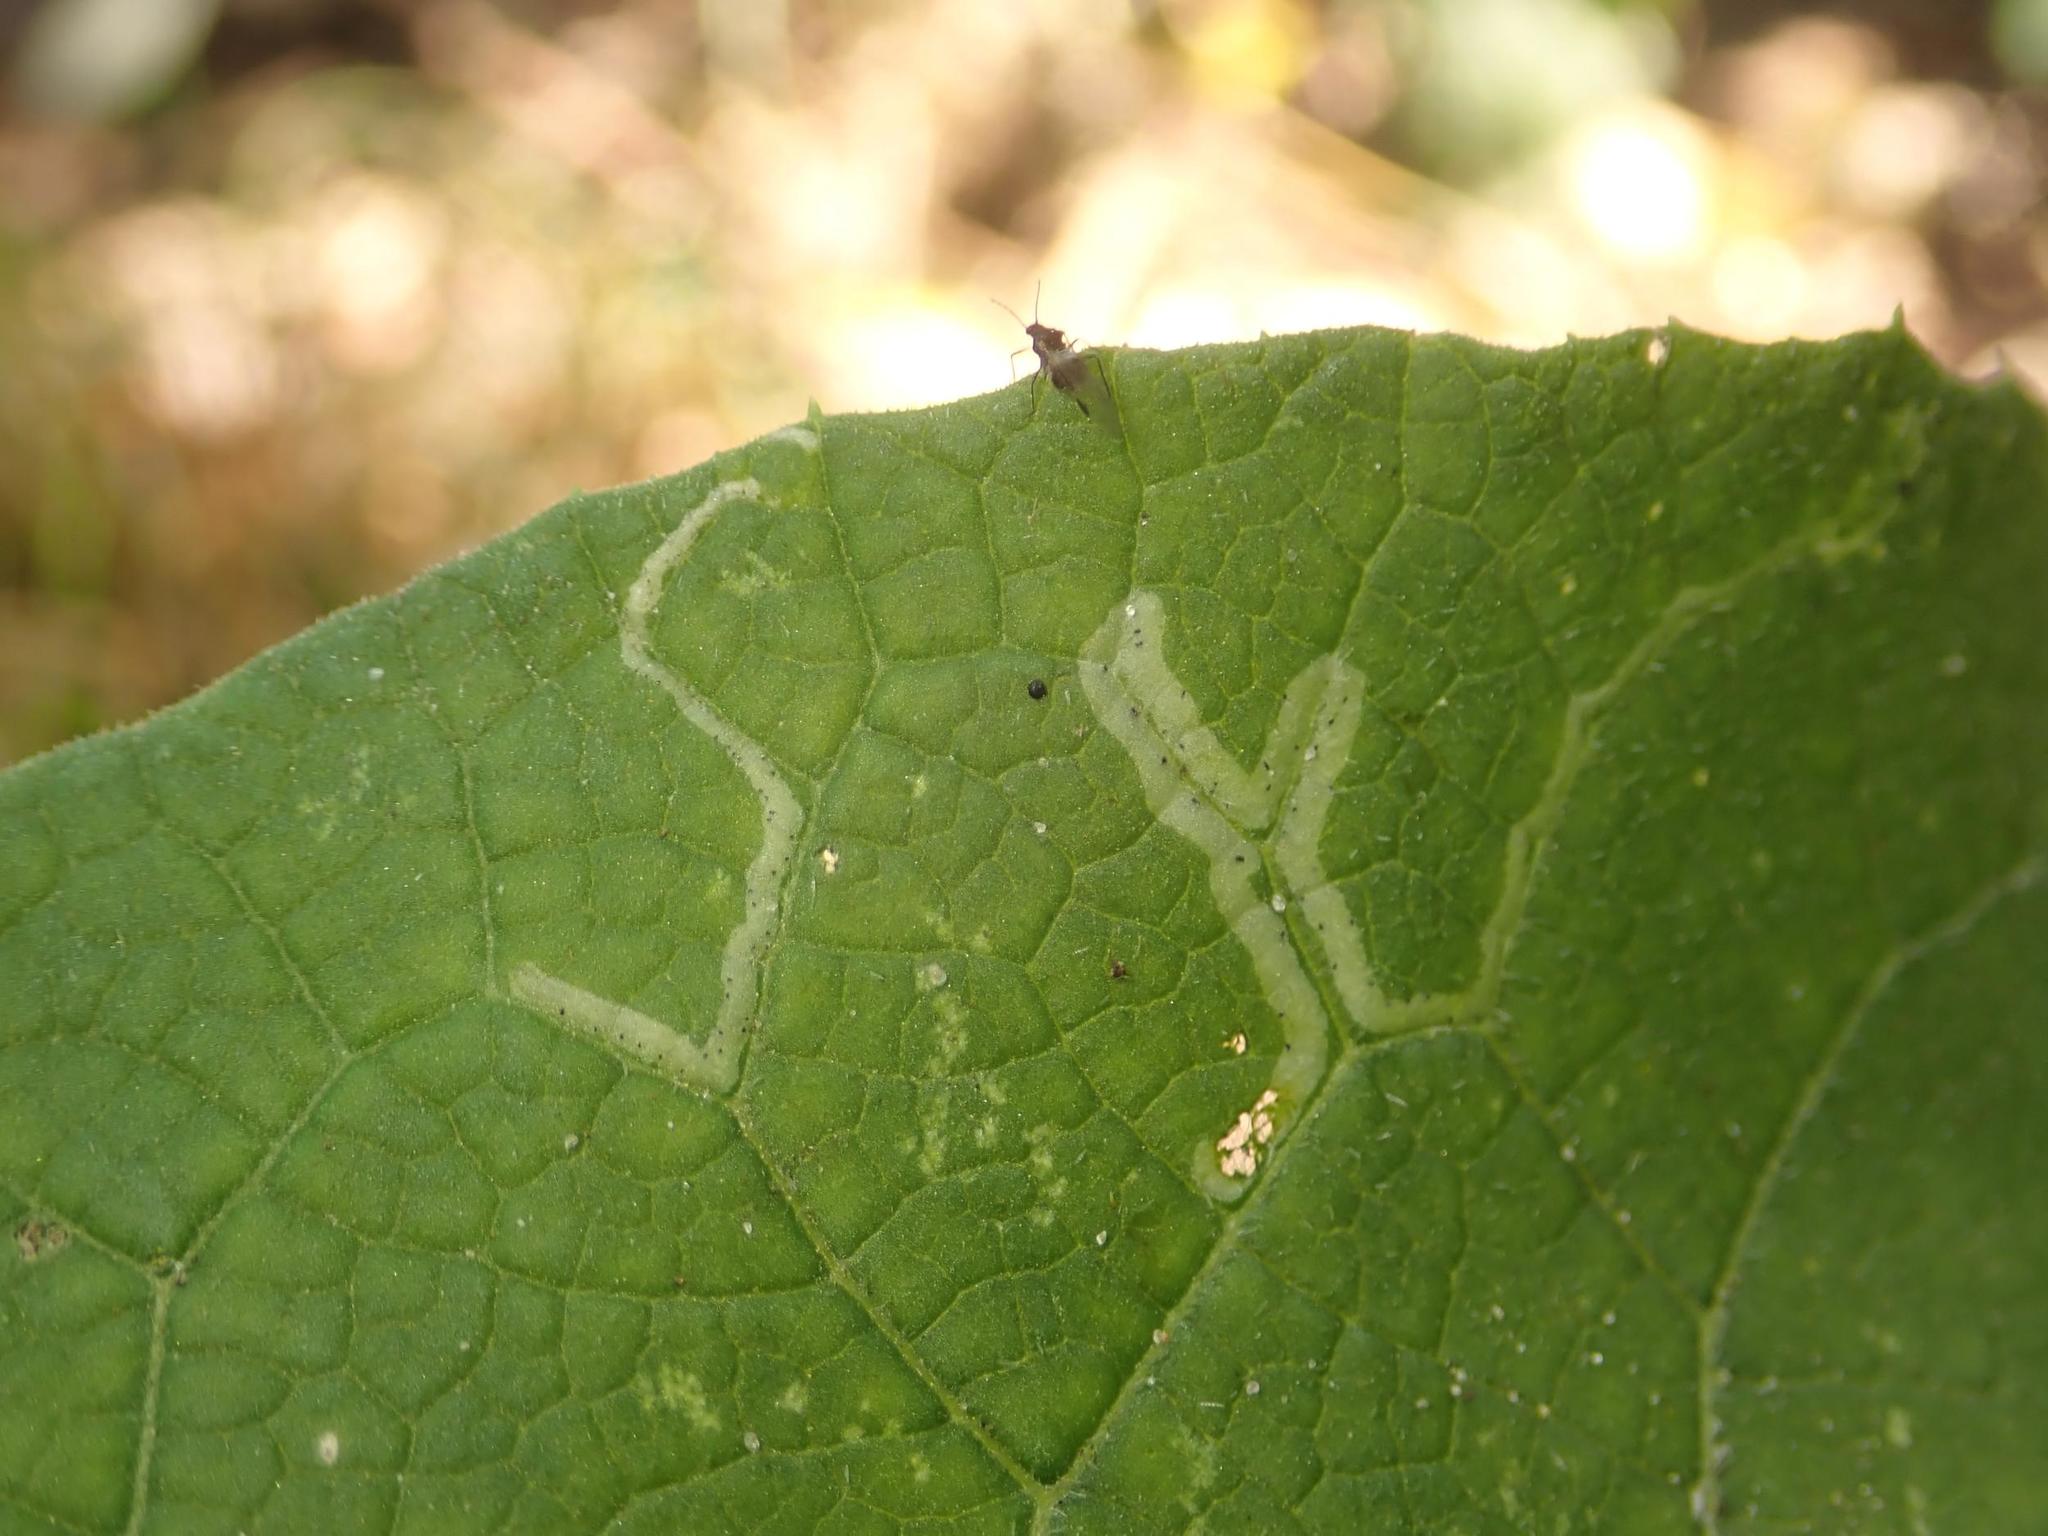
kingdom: Animalia
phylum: Arthropoda
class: Insecta
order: Diptera
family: Agromyzidae
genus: Phytomyza
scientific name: Phytomyza lappae
